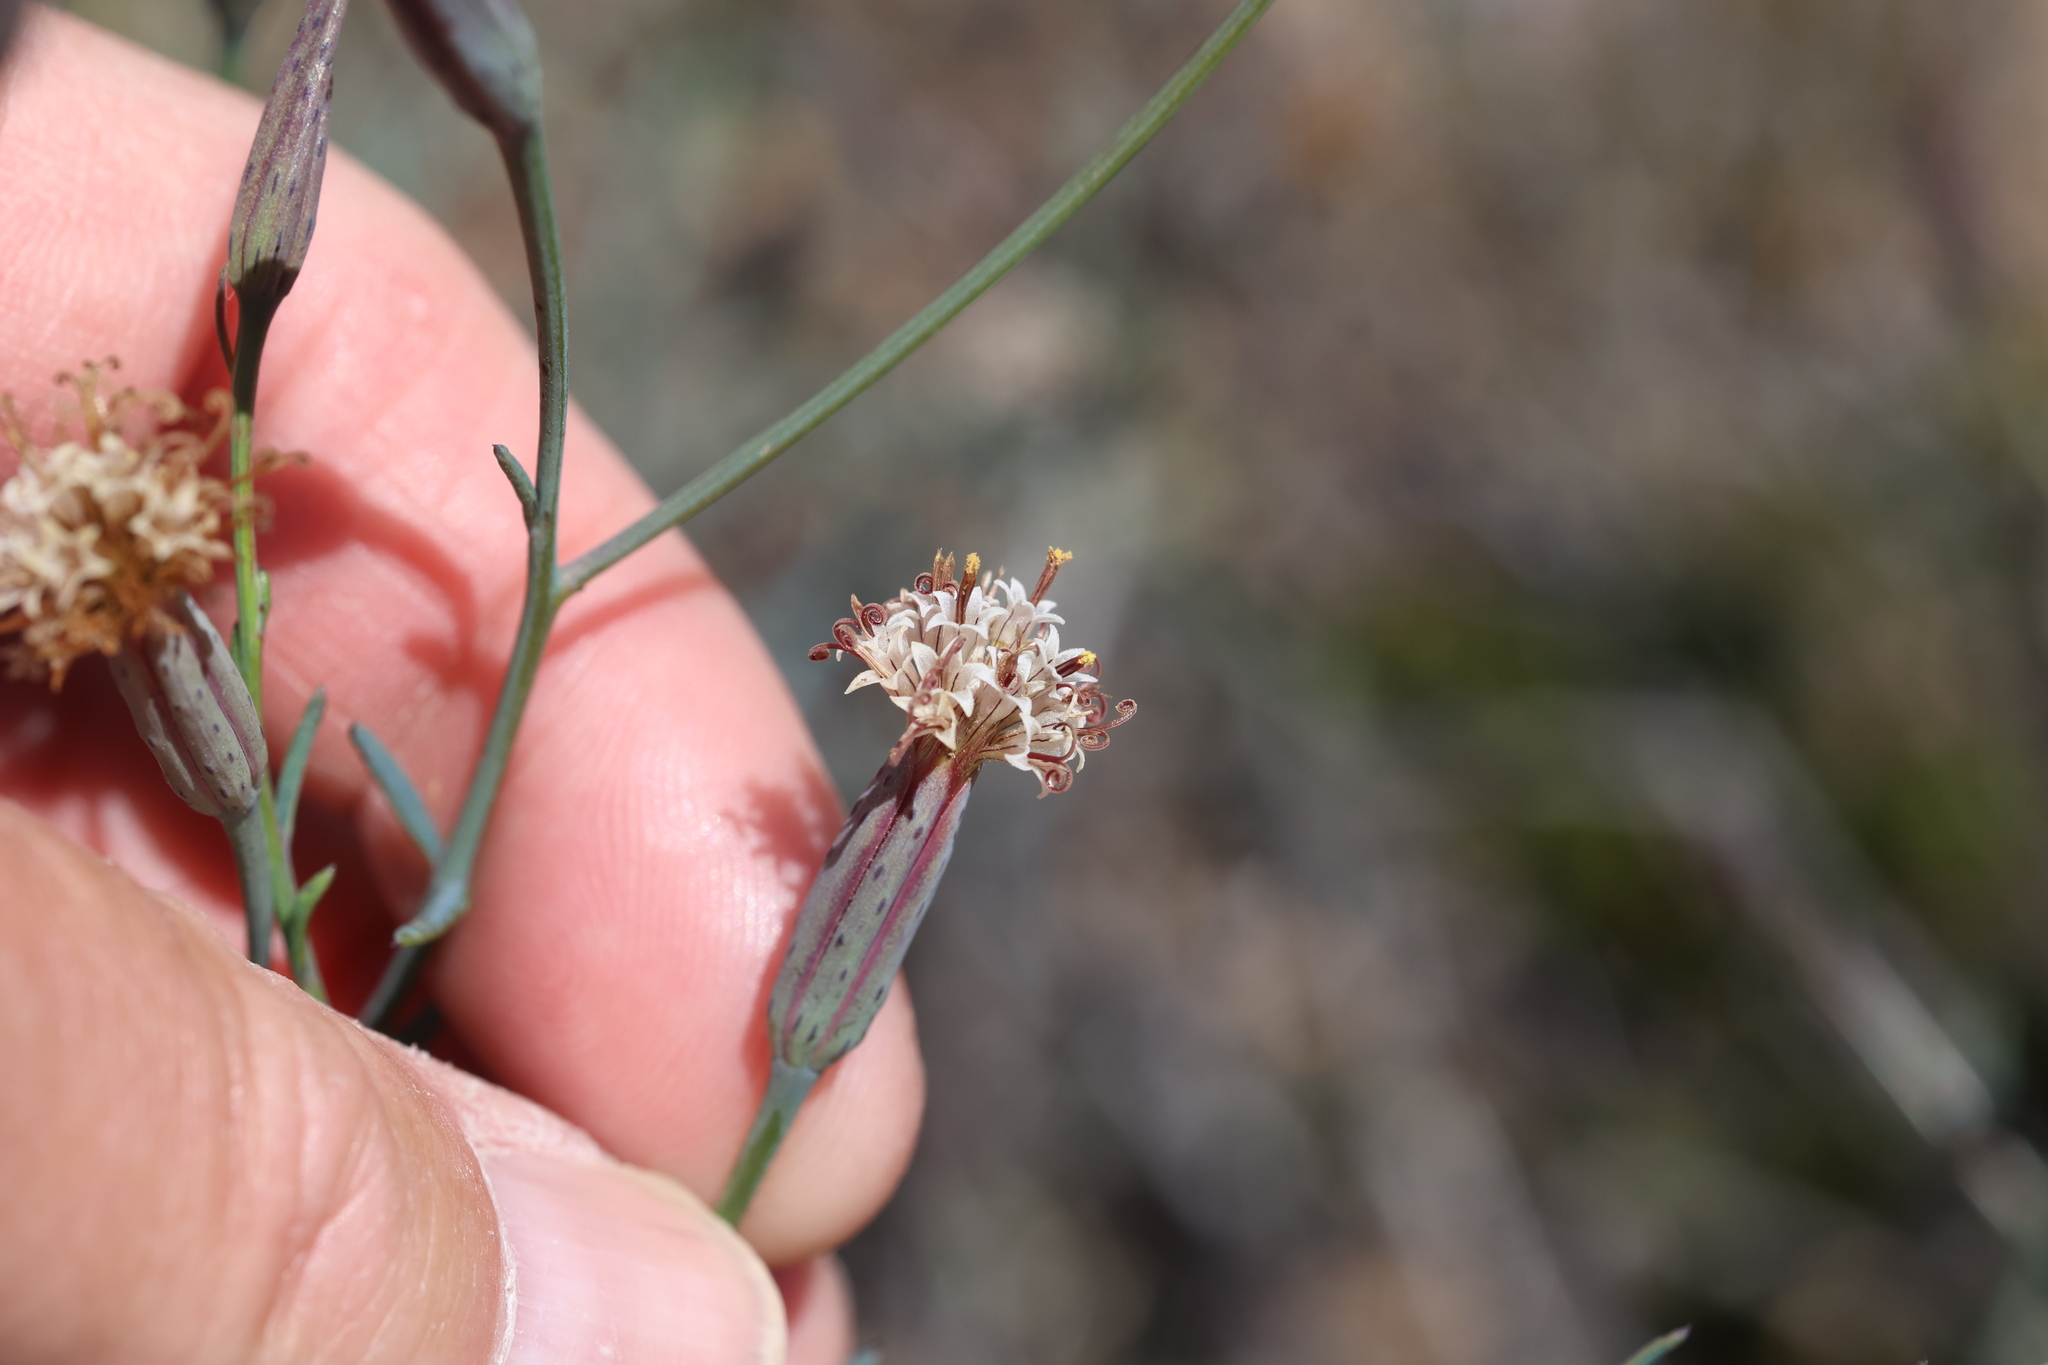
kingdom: Plantae
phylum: Tracheophyta
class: Magnoliopsida
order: Asterales
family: Asteraceae
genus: Porophyllum
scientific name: Porophyllum gracile
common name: Odora
